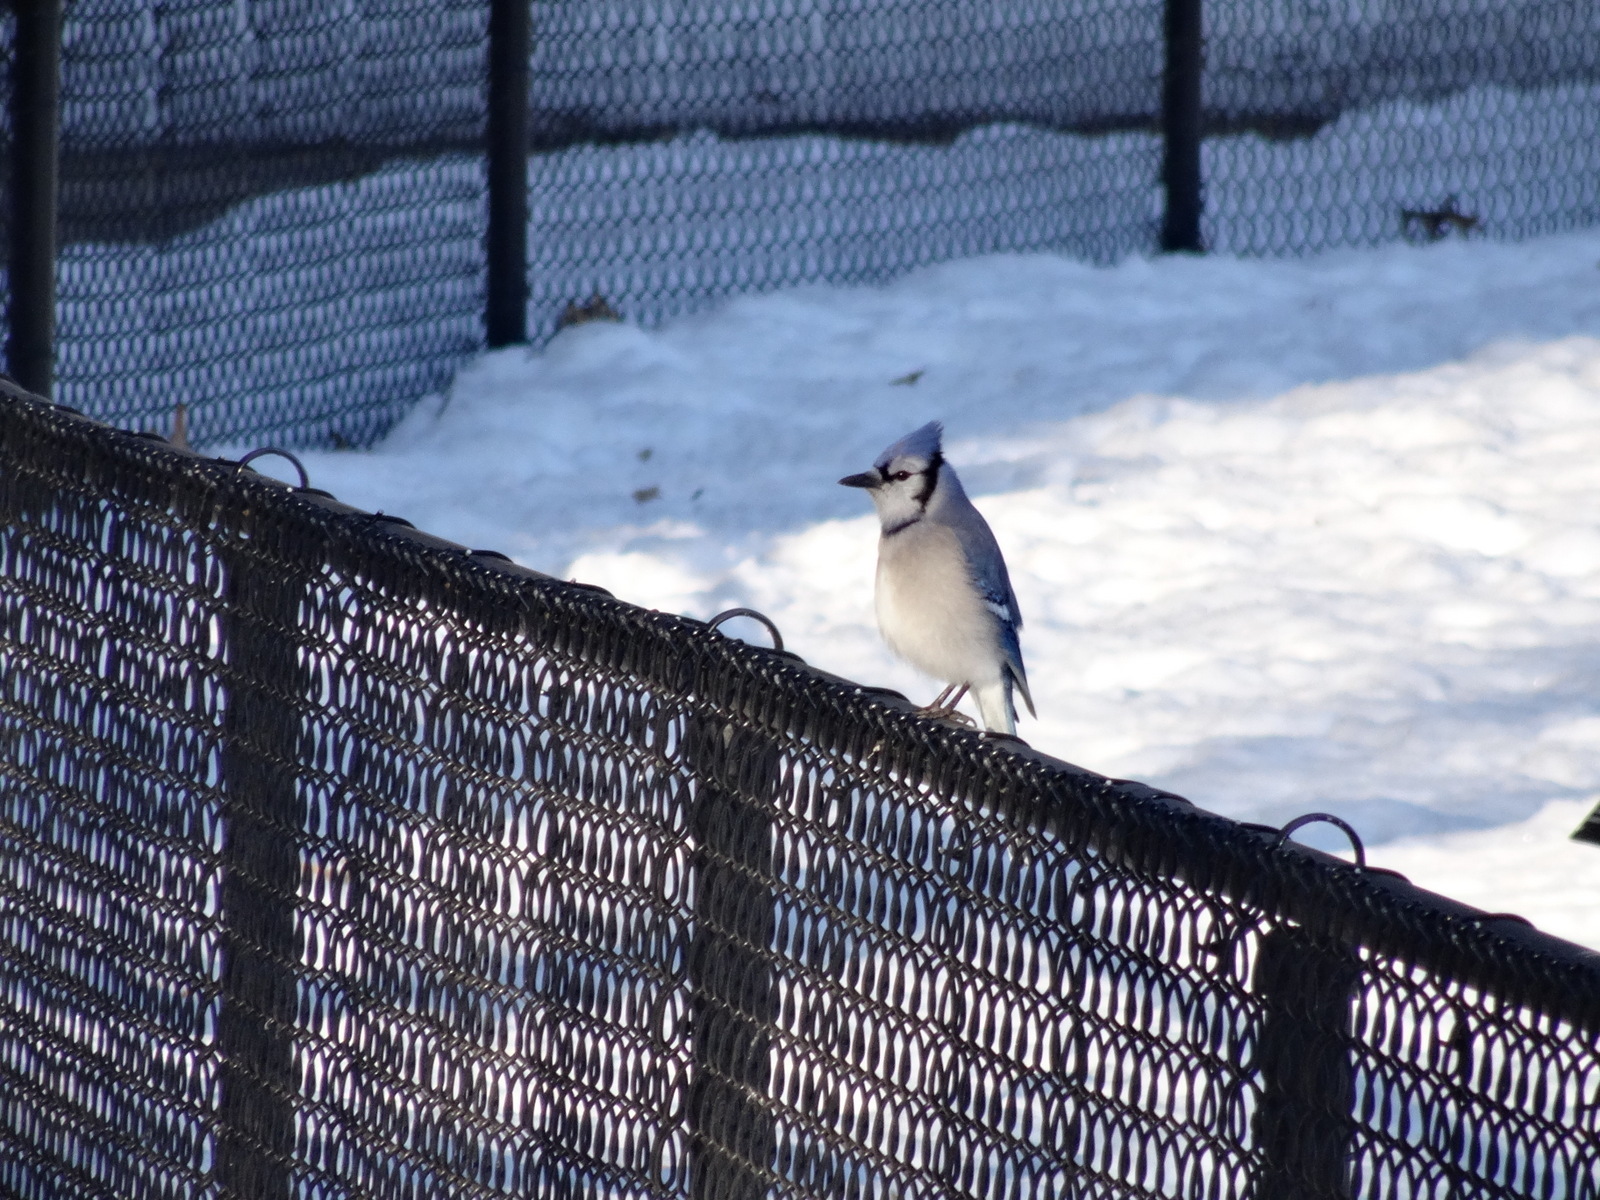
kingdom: Animalia
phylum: Chordata
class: Aves
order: Passeriformes
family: Corvidae
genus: Cyanocitta
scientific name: Cyanocitta cristata
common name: Blue jay
